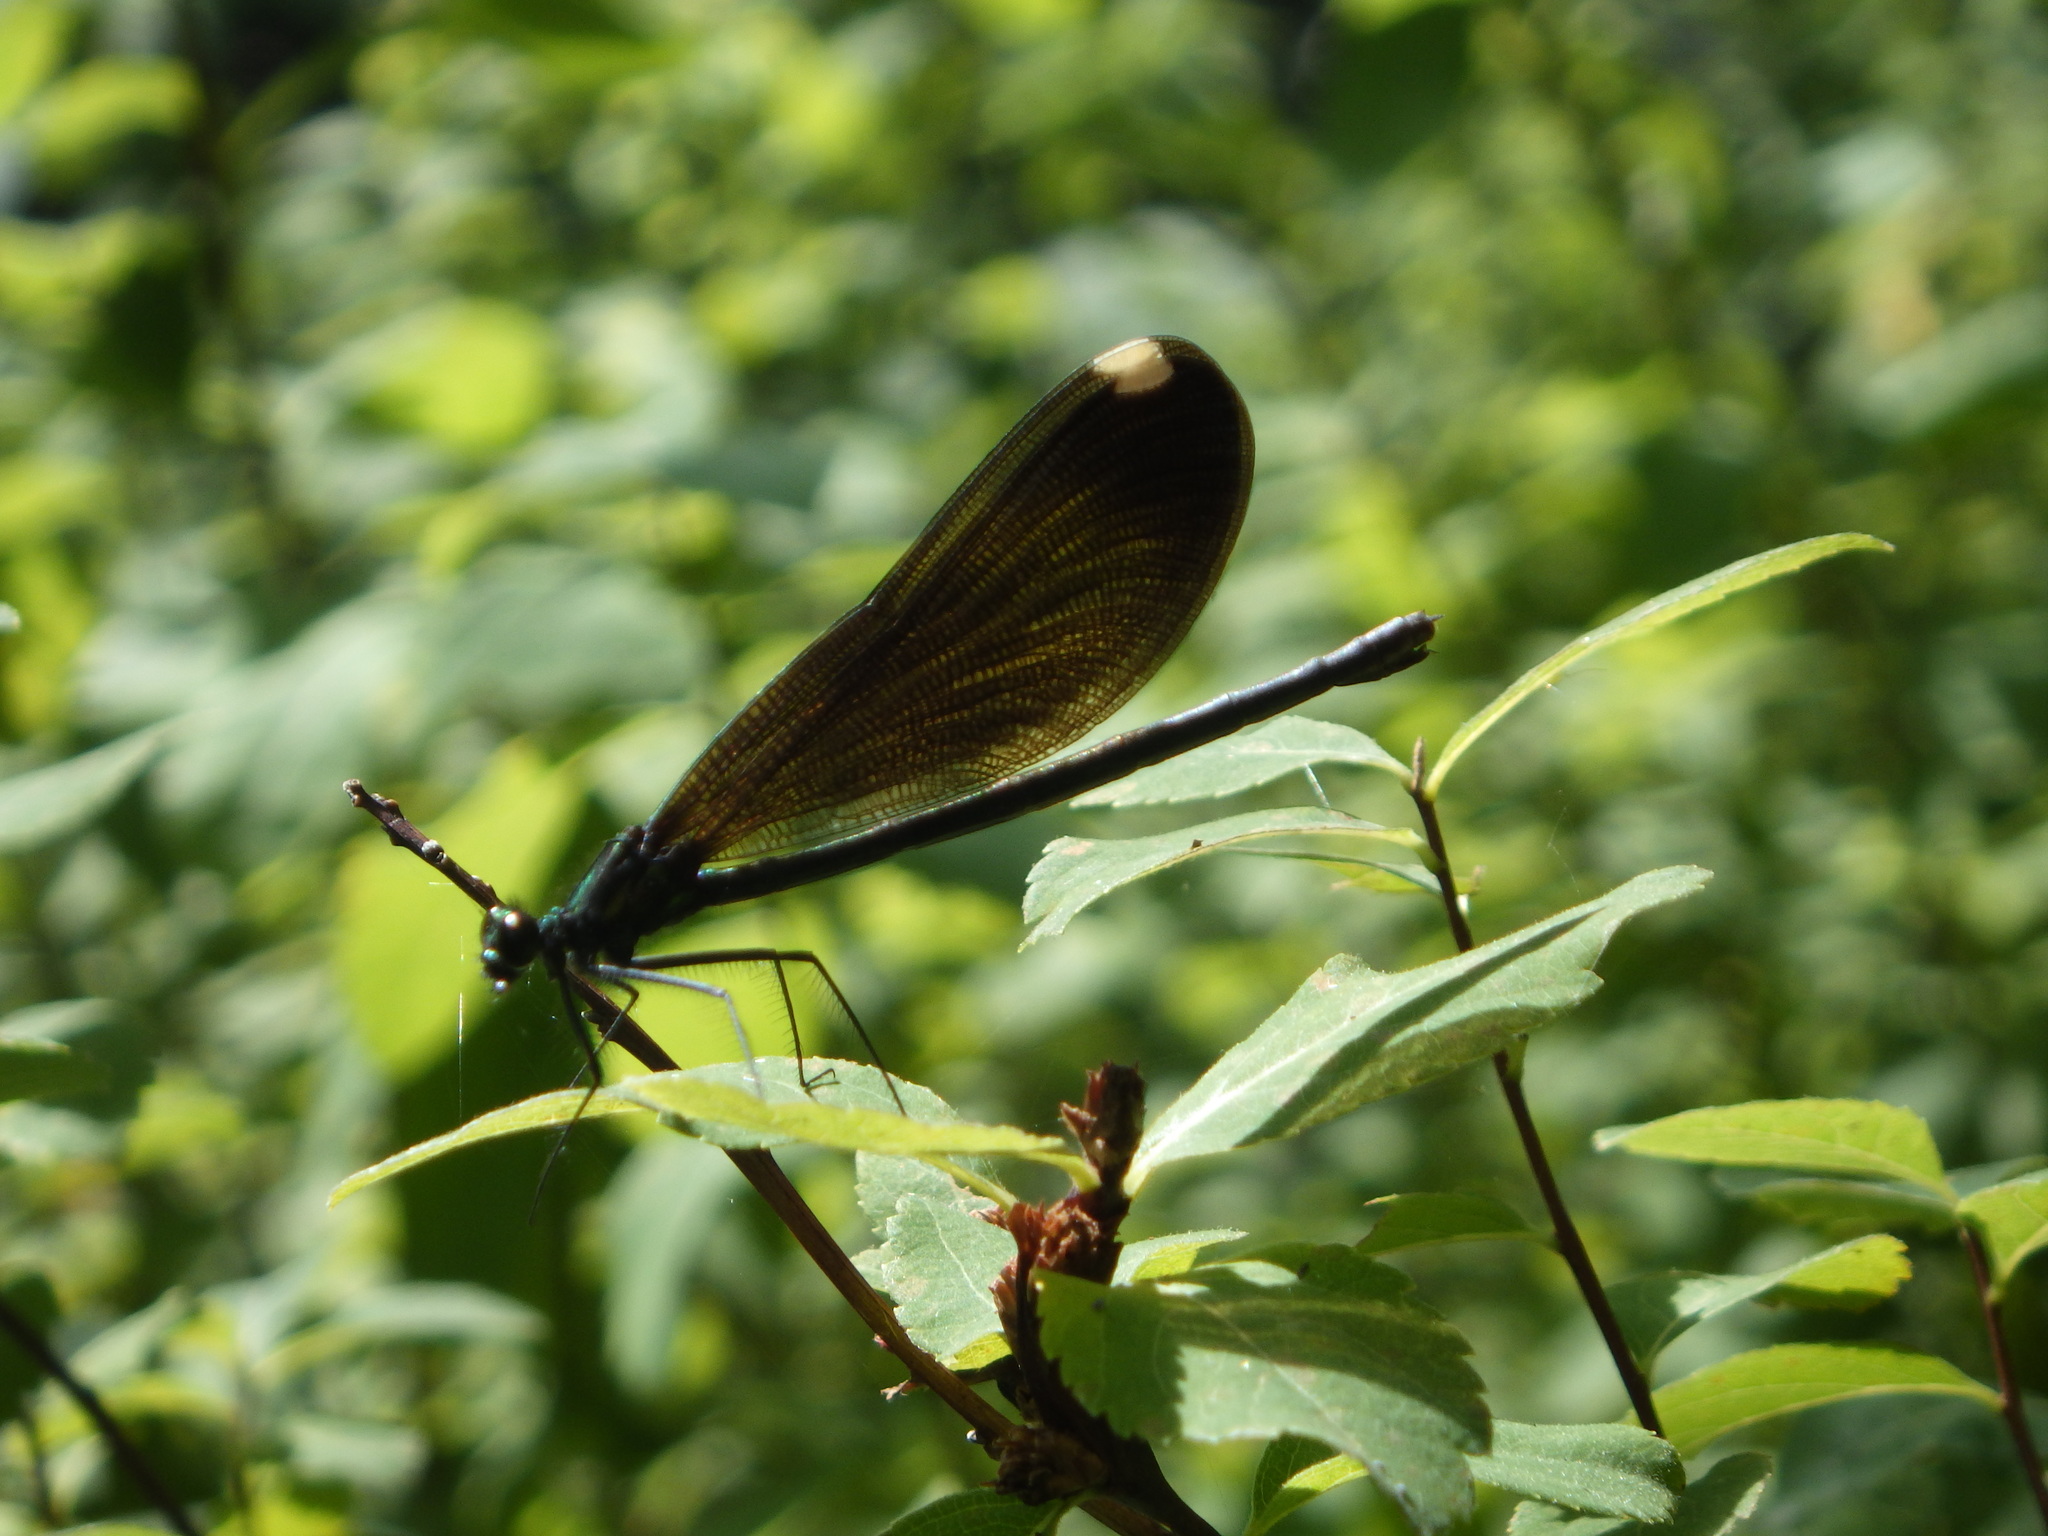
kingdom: Animalia
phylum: Arthropoda
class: Insecta
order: Odonata
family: Calopterygidae
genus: Calopteryx
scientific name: Calopteryx maculata
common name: Ebony jewelwing
